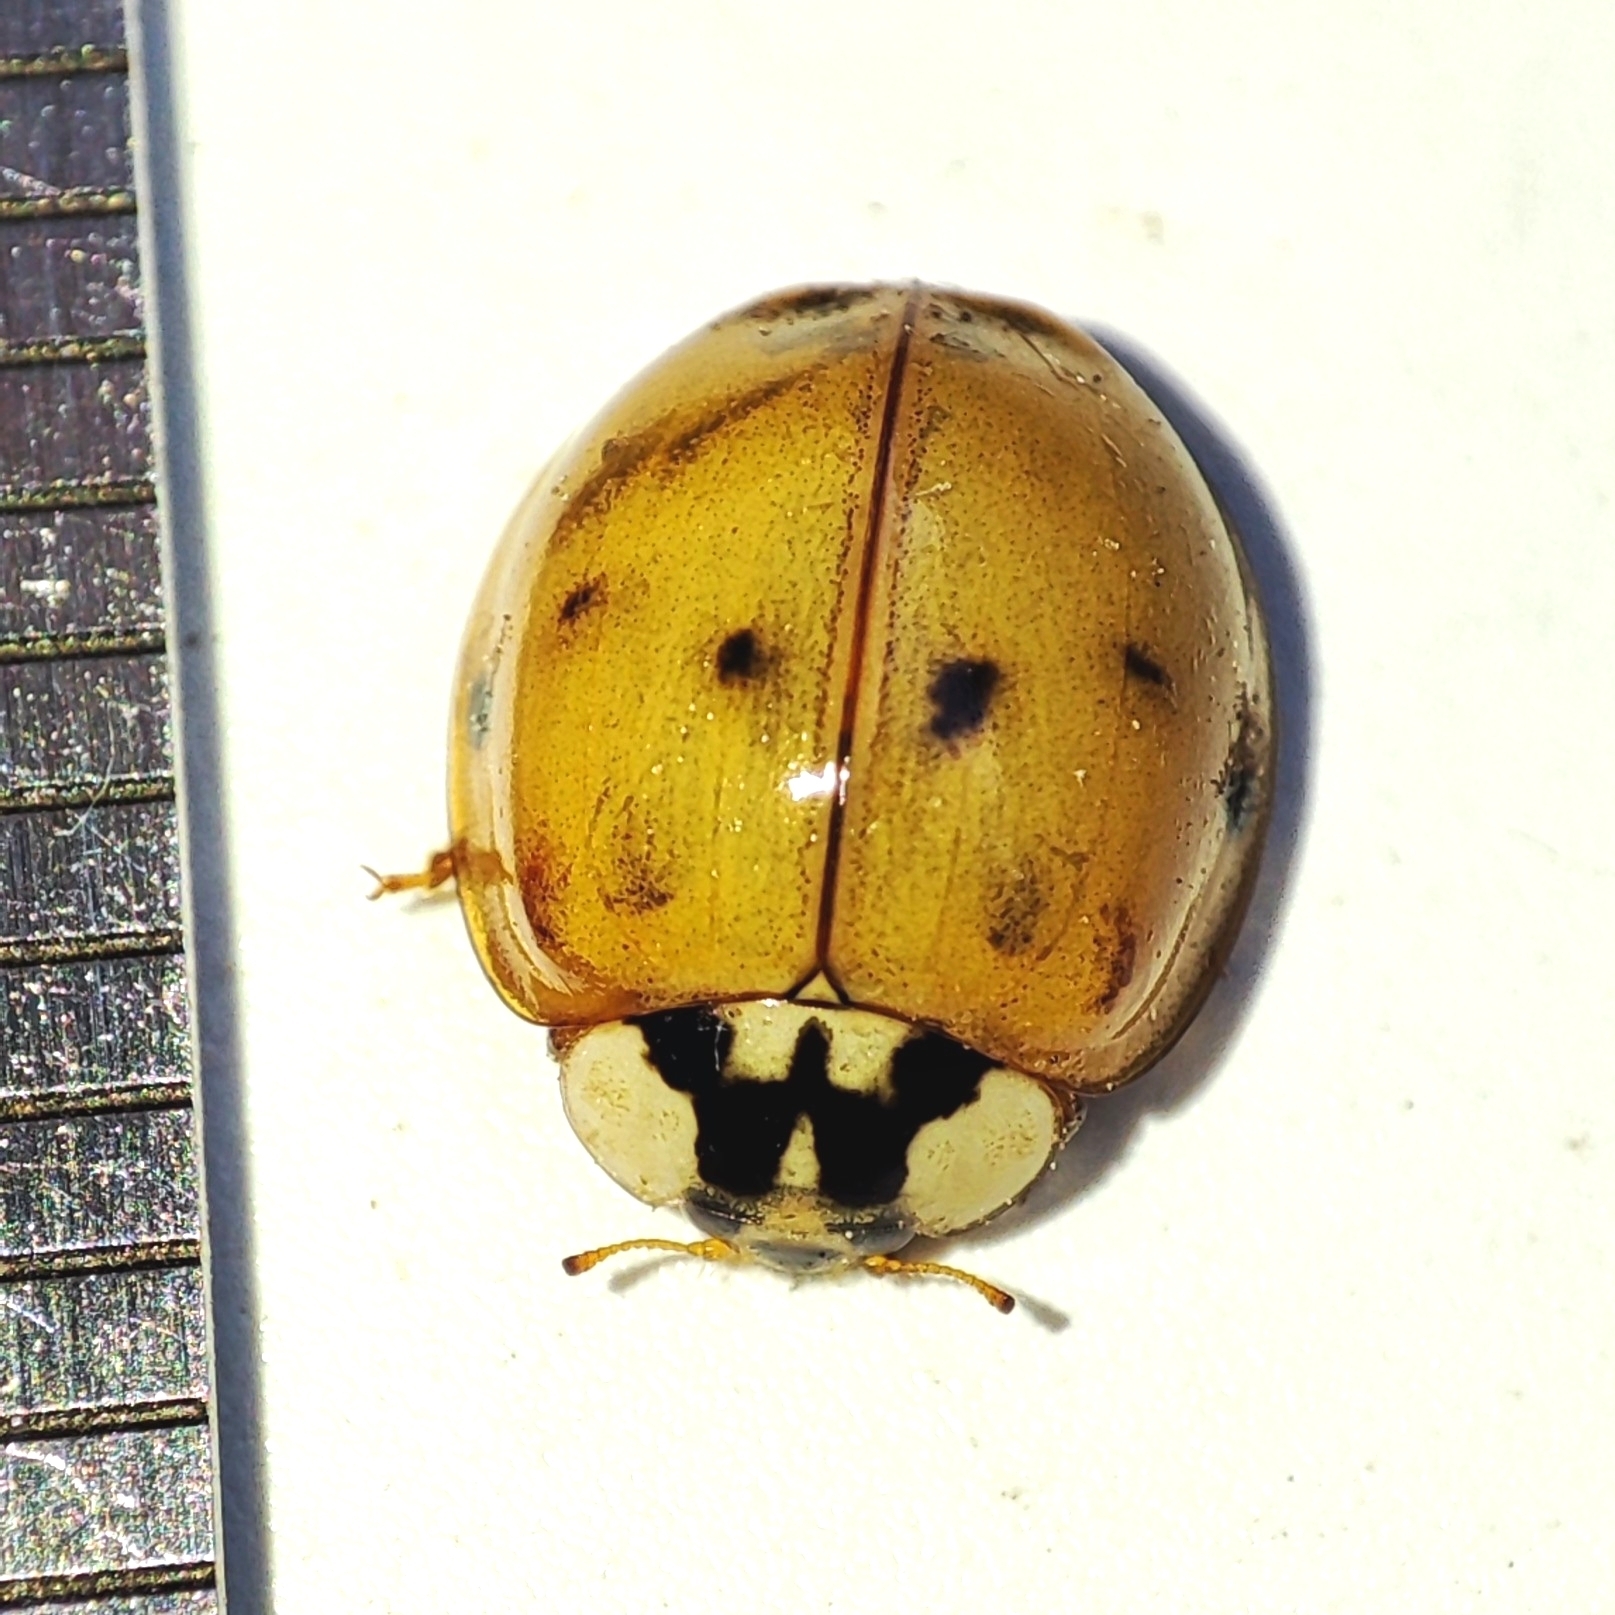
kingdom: Animalia
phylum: Arthropoda
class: Insecta
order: Coleoptera
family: Coccinellidae
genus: Harmonia
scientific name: Harmonia axyridis
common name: Harlequin ladybird
